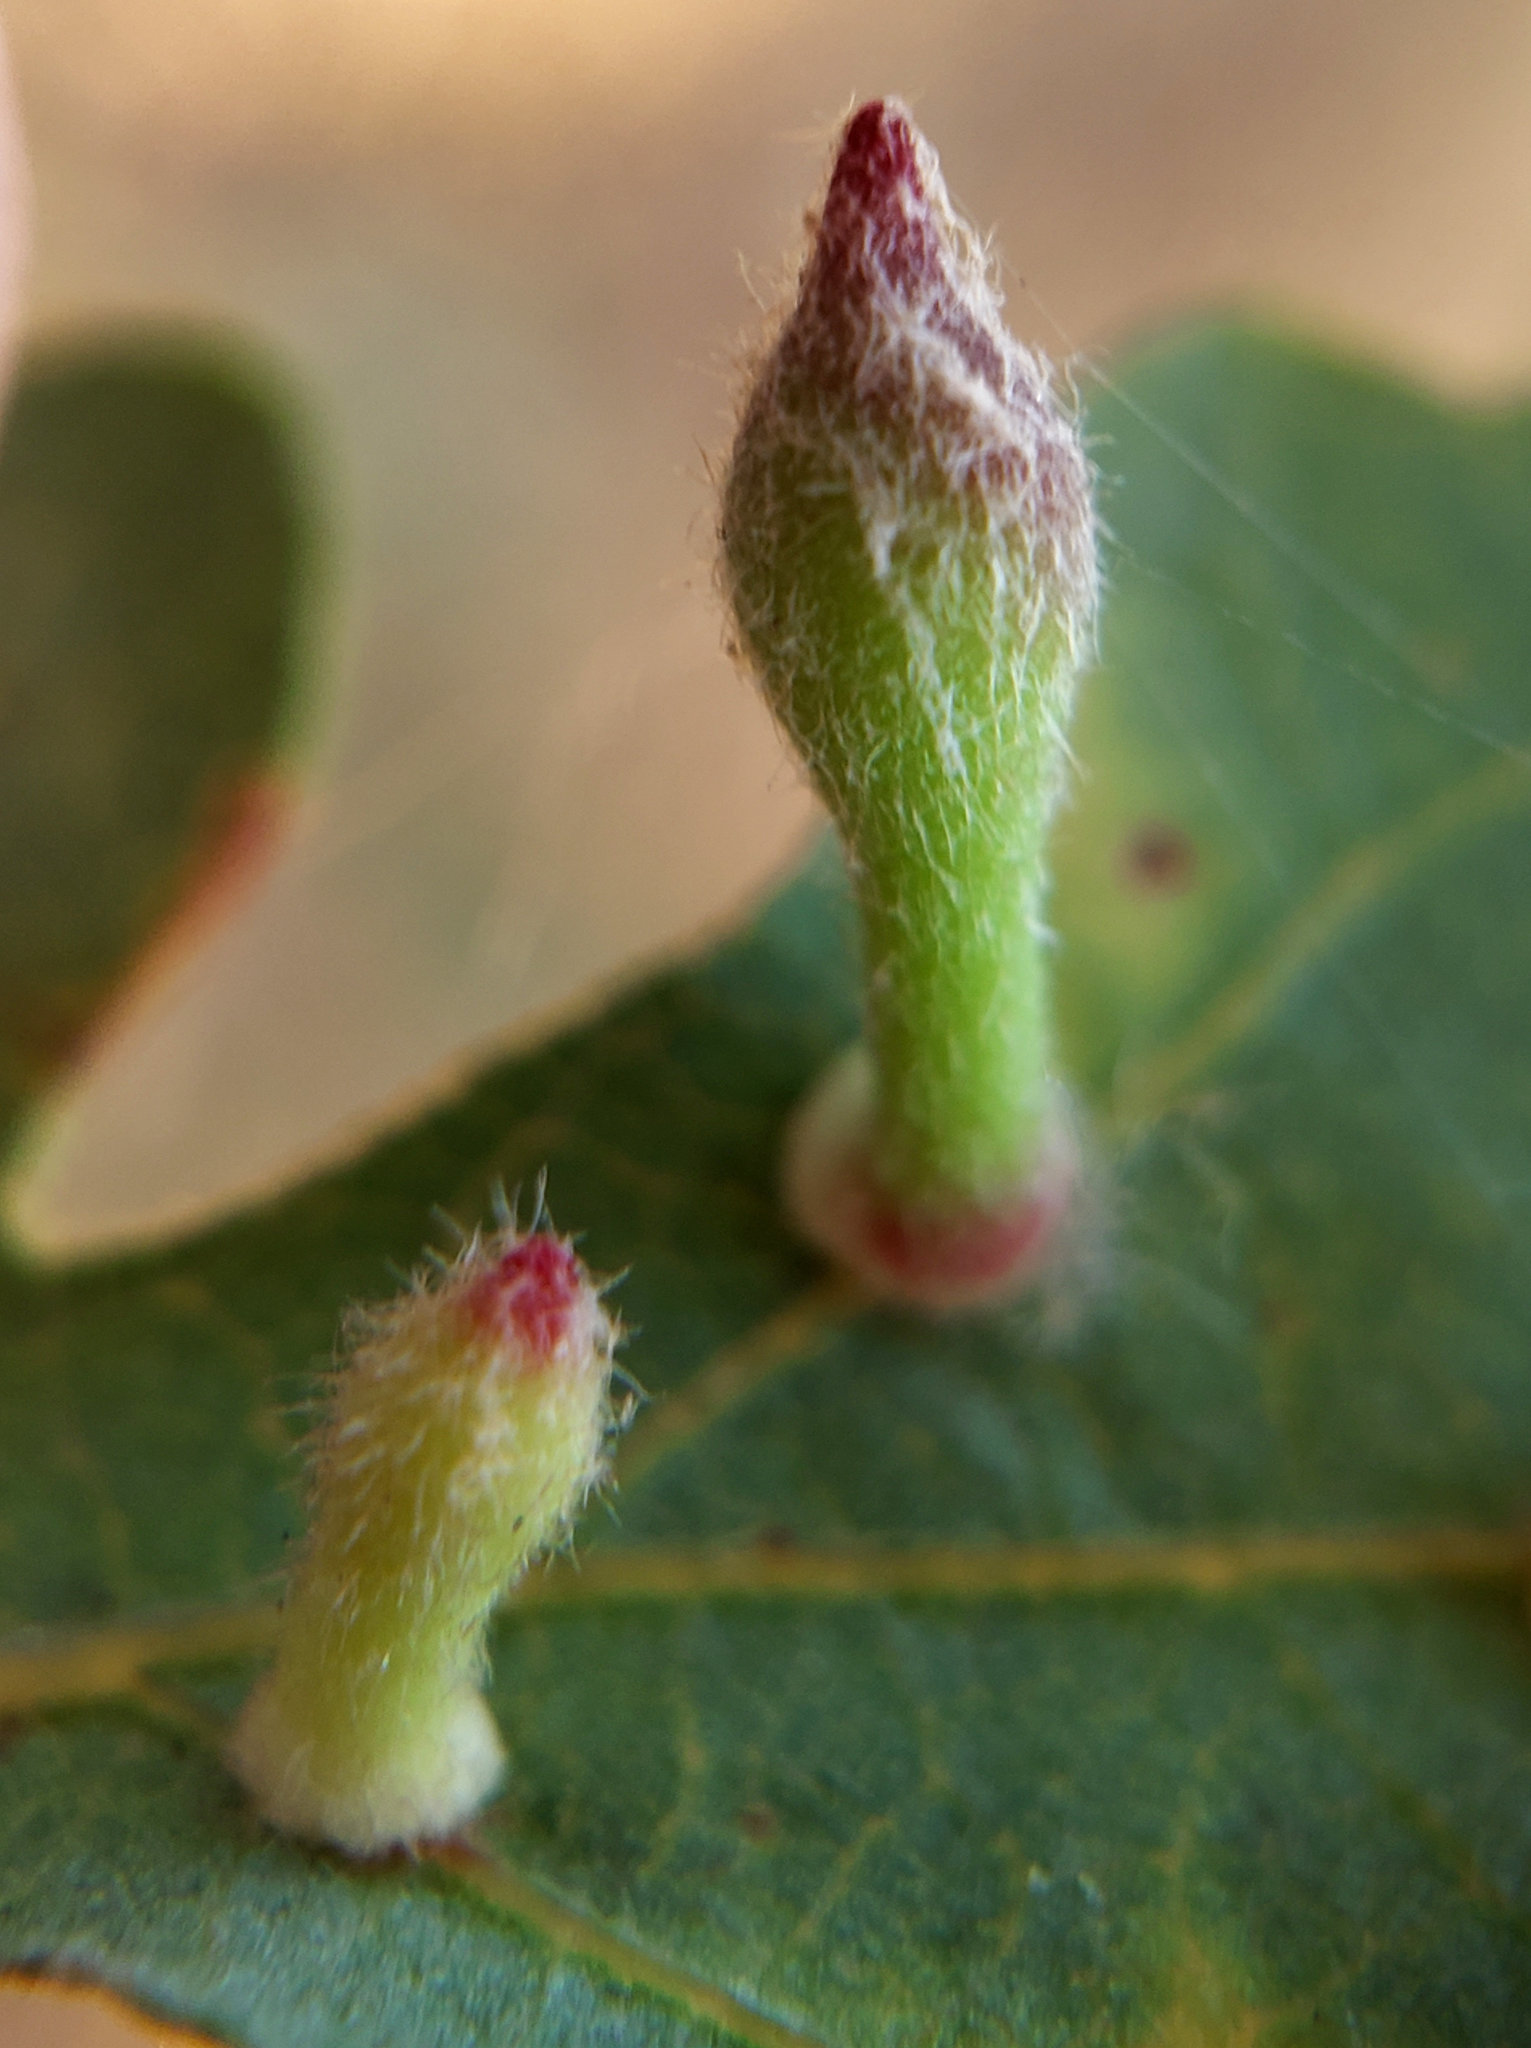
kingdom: Animalia
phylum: Arthropoda
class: Insecta
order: Hymenoptera
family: Cynipidae
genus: Atrusca
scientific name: Atrusca
